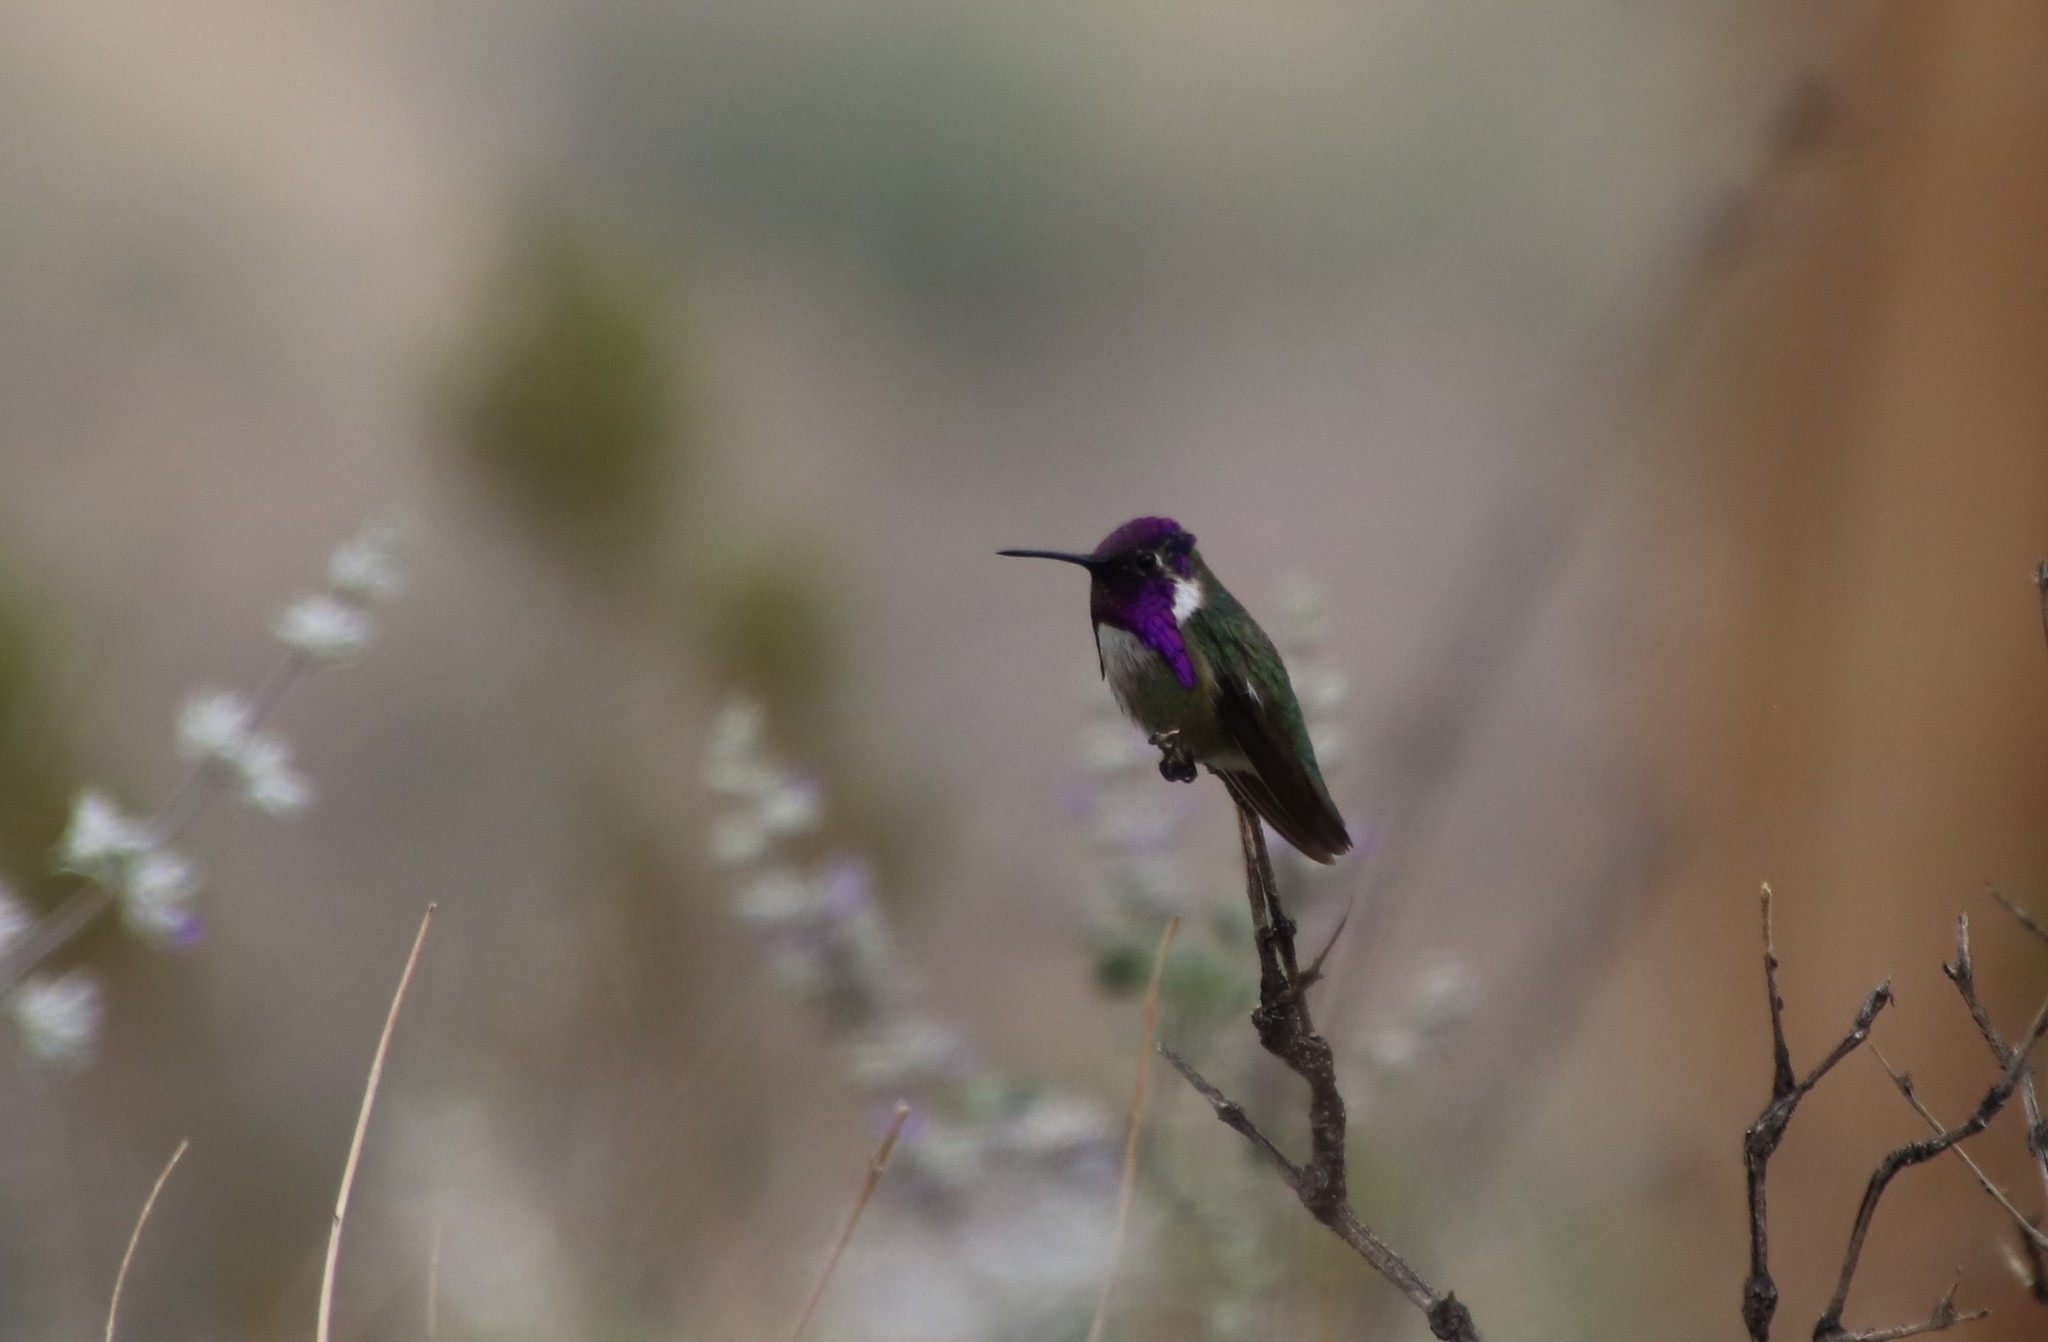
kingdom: Animalia
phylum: Chordata
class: Aves
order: Apodiformes
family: Trochilidae
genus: Calypte
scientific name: Calypte costae
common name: Costa's hummingbird
